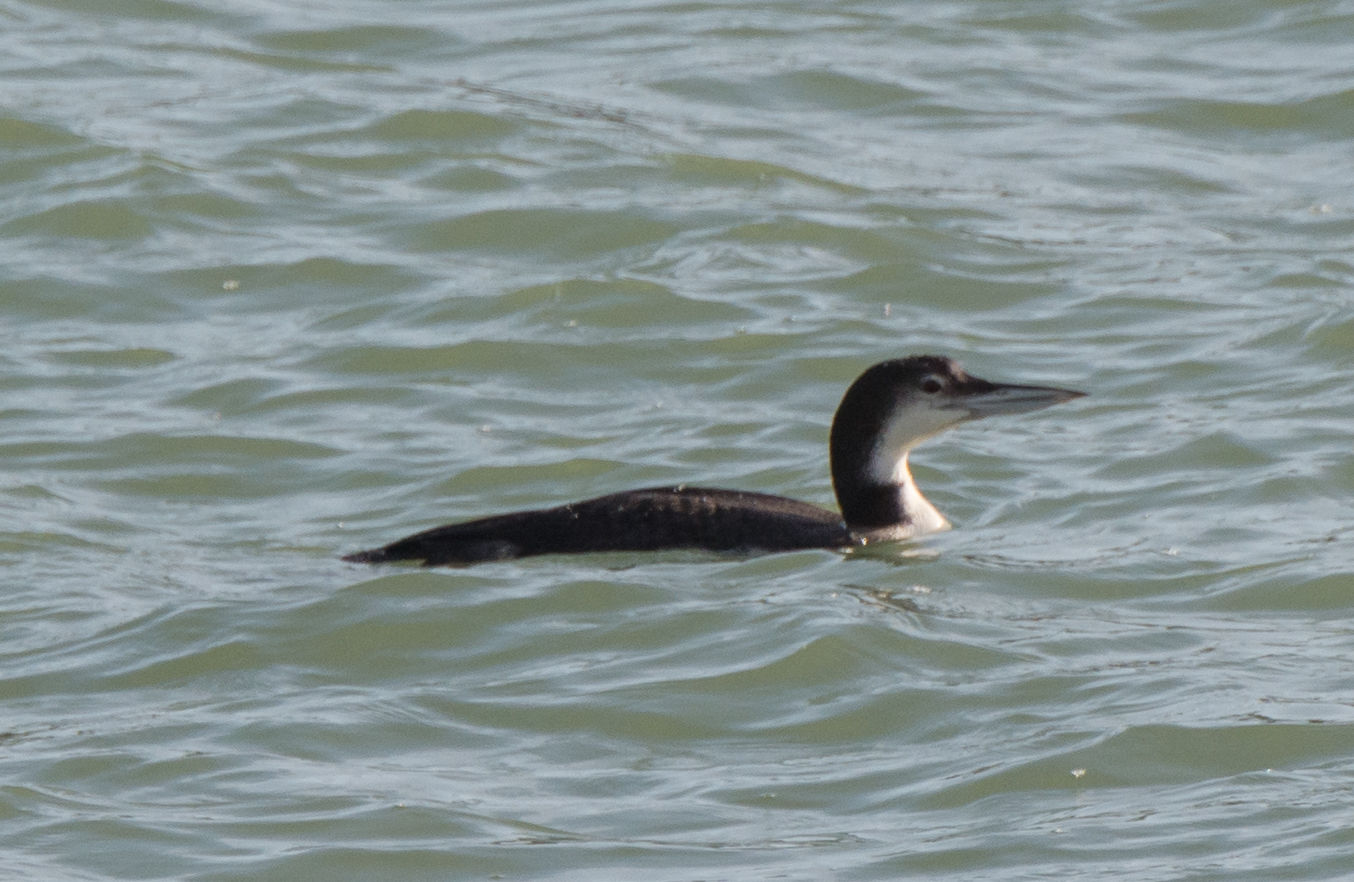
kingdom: Animalia
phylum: Chordata
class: Aves
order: Gaviiformes
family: Gaviidae
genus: Gavia
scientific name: Gavia immer
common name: Common loon
